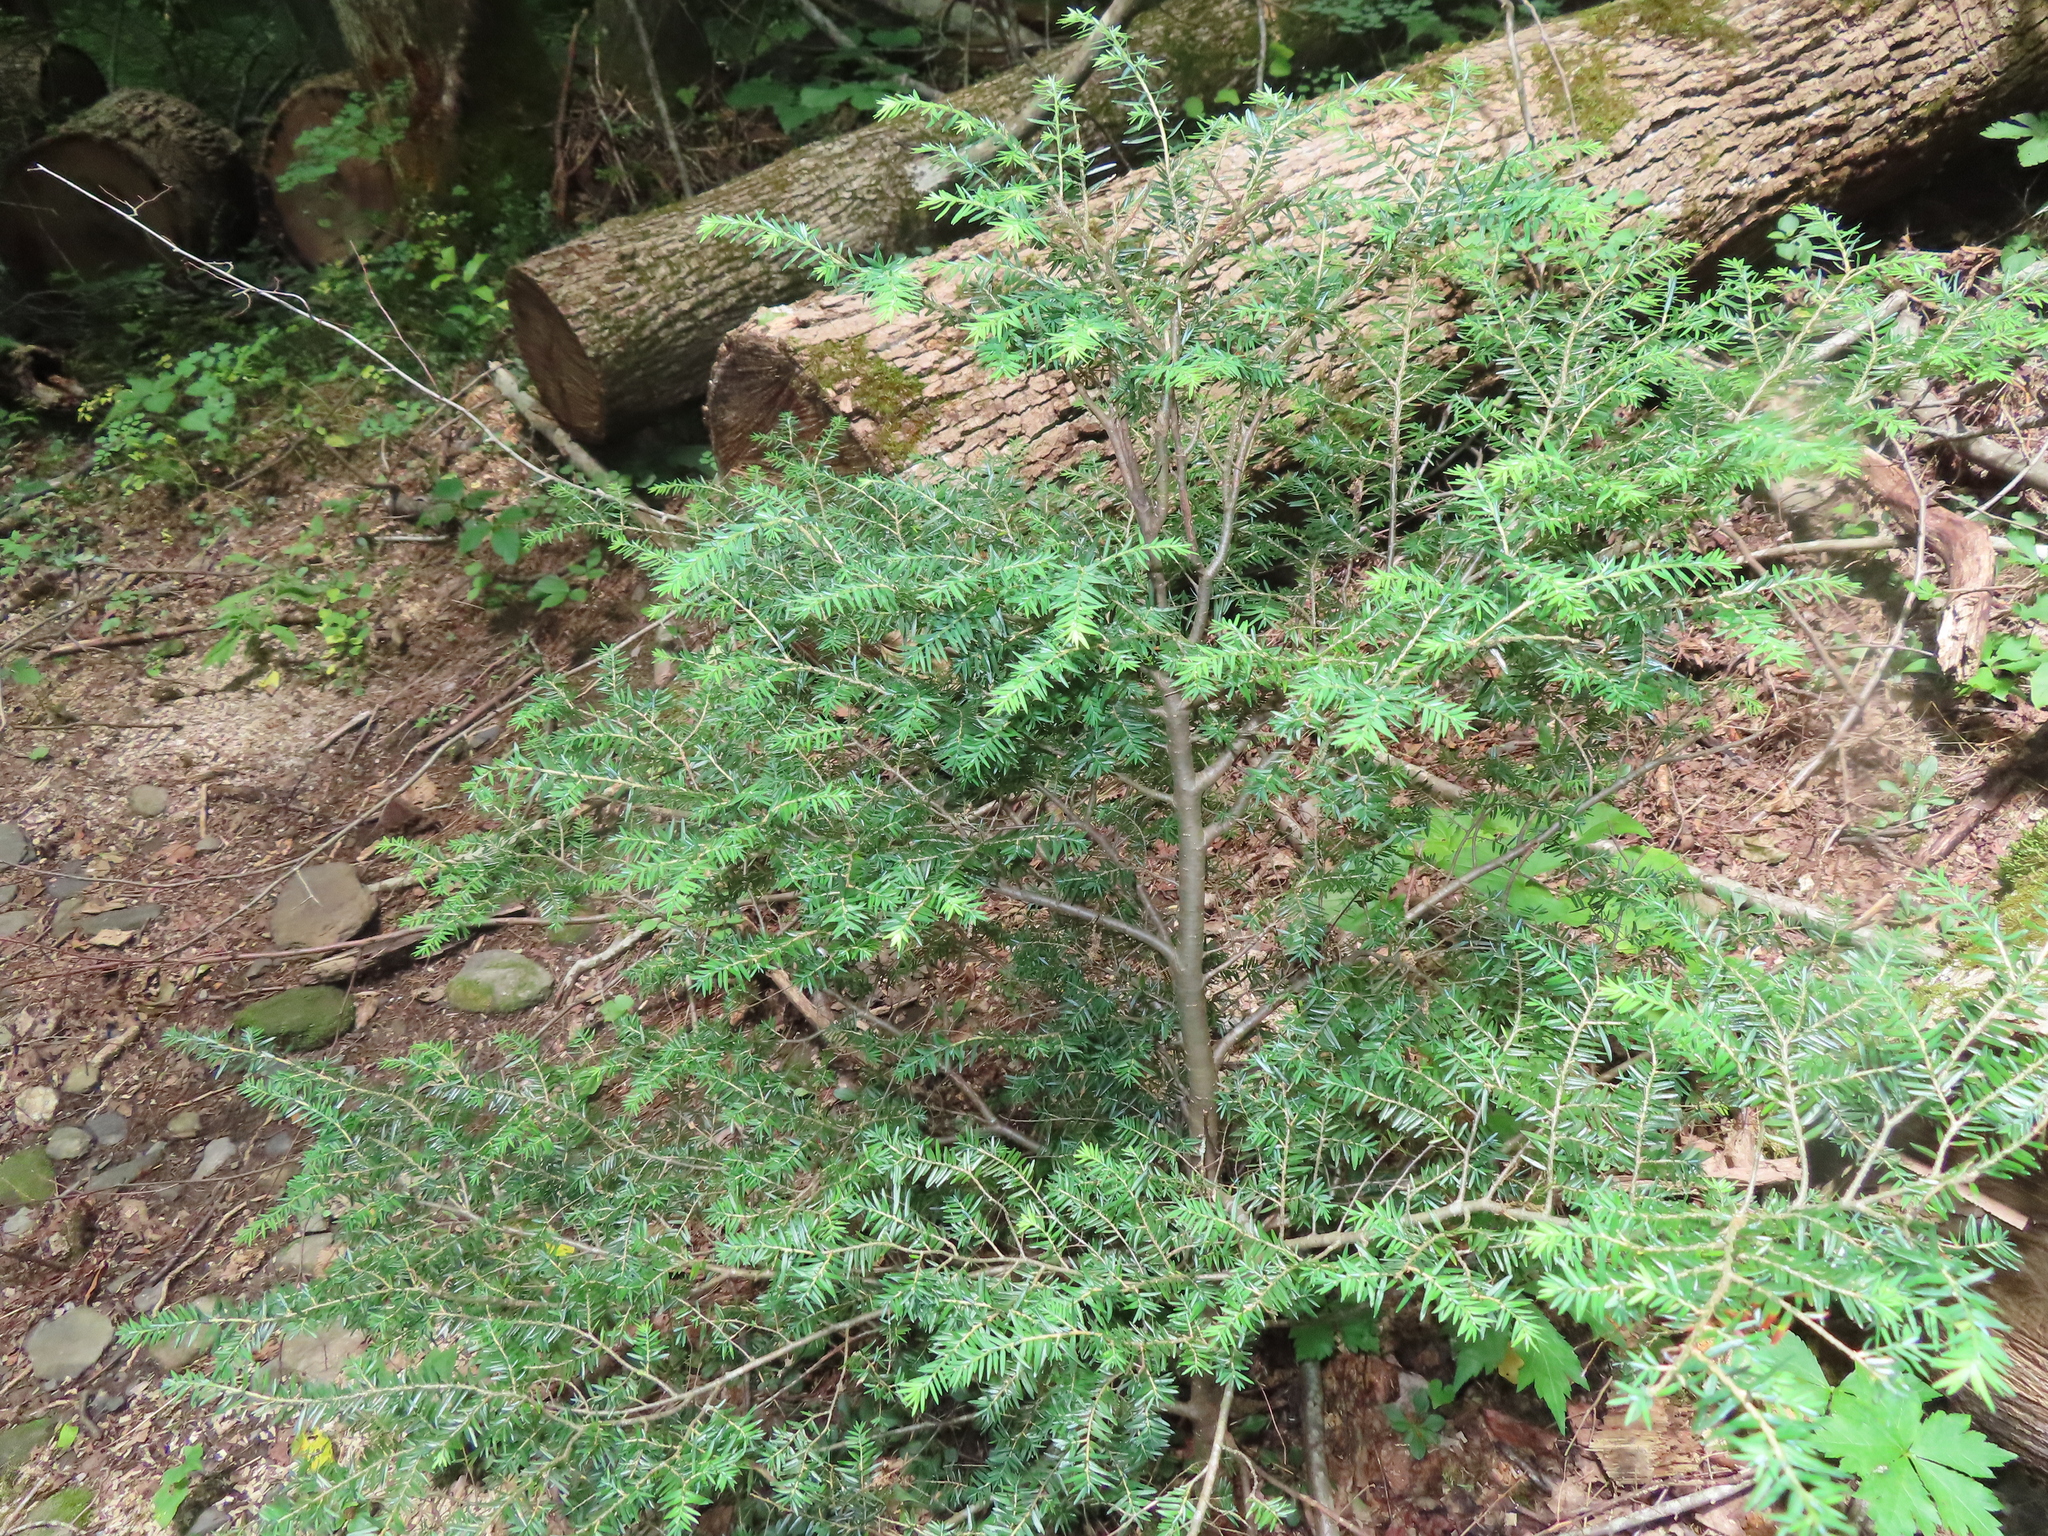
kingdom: Plantae
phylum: Tracheophyta
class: Pinopsida
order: Pinales
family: Pinaceae
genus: Tsuga
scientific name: Tsuga canadensis
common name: Eastern hemlock
